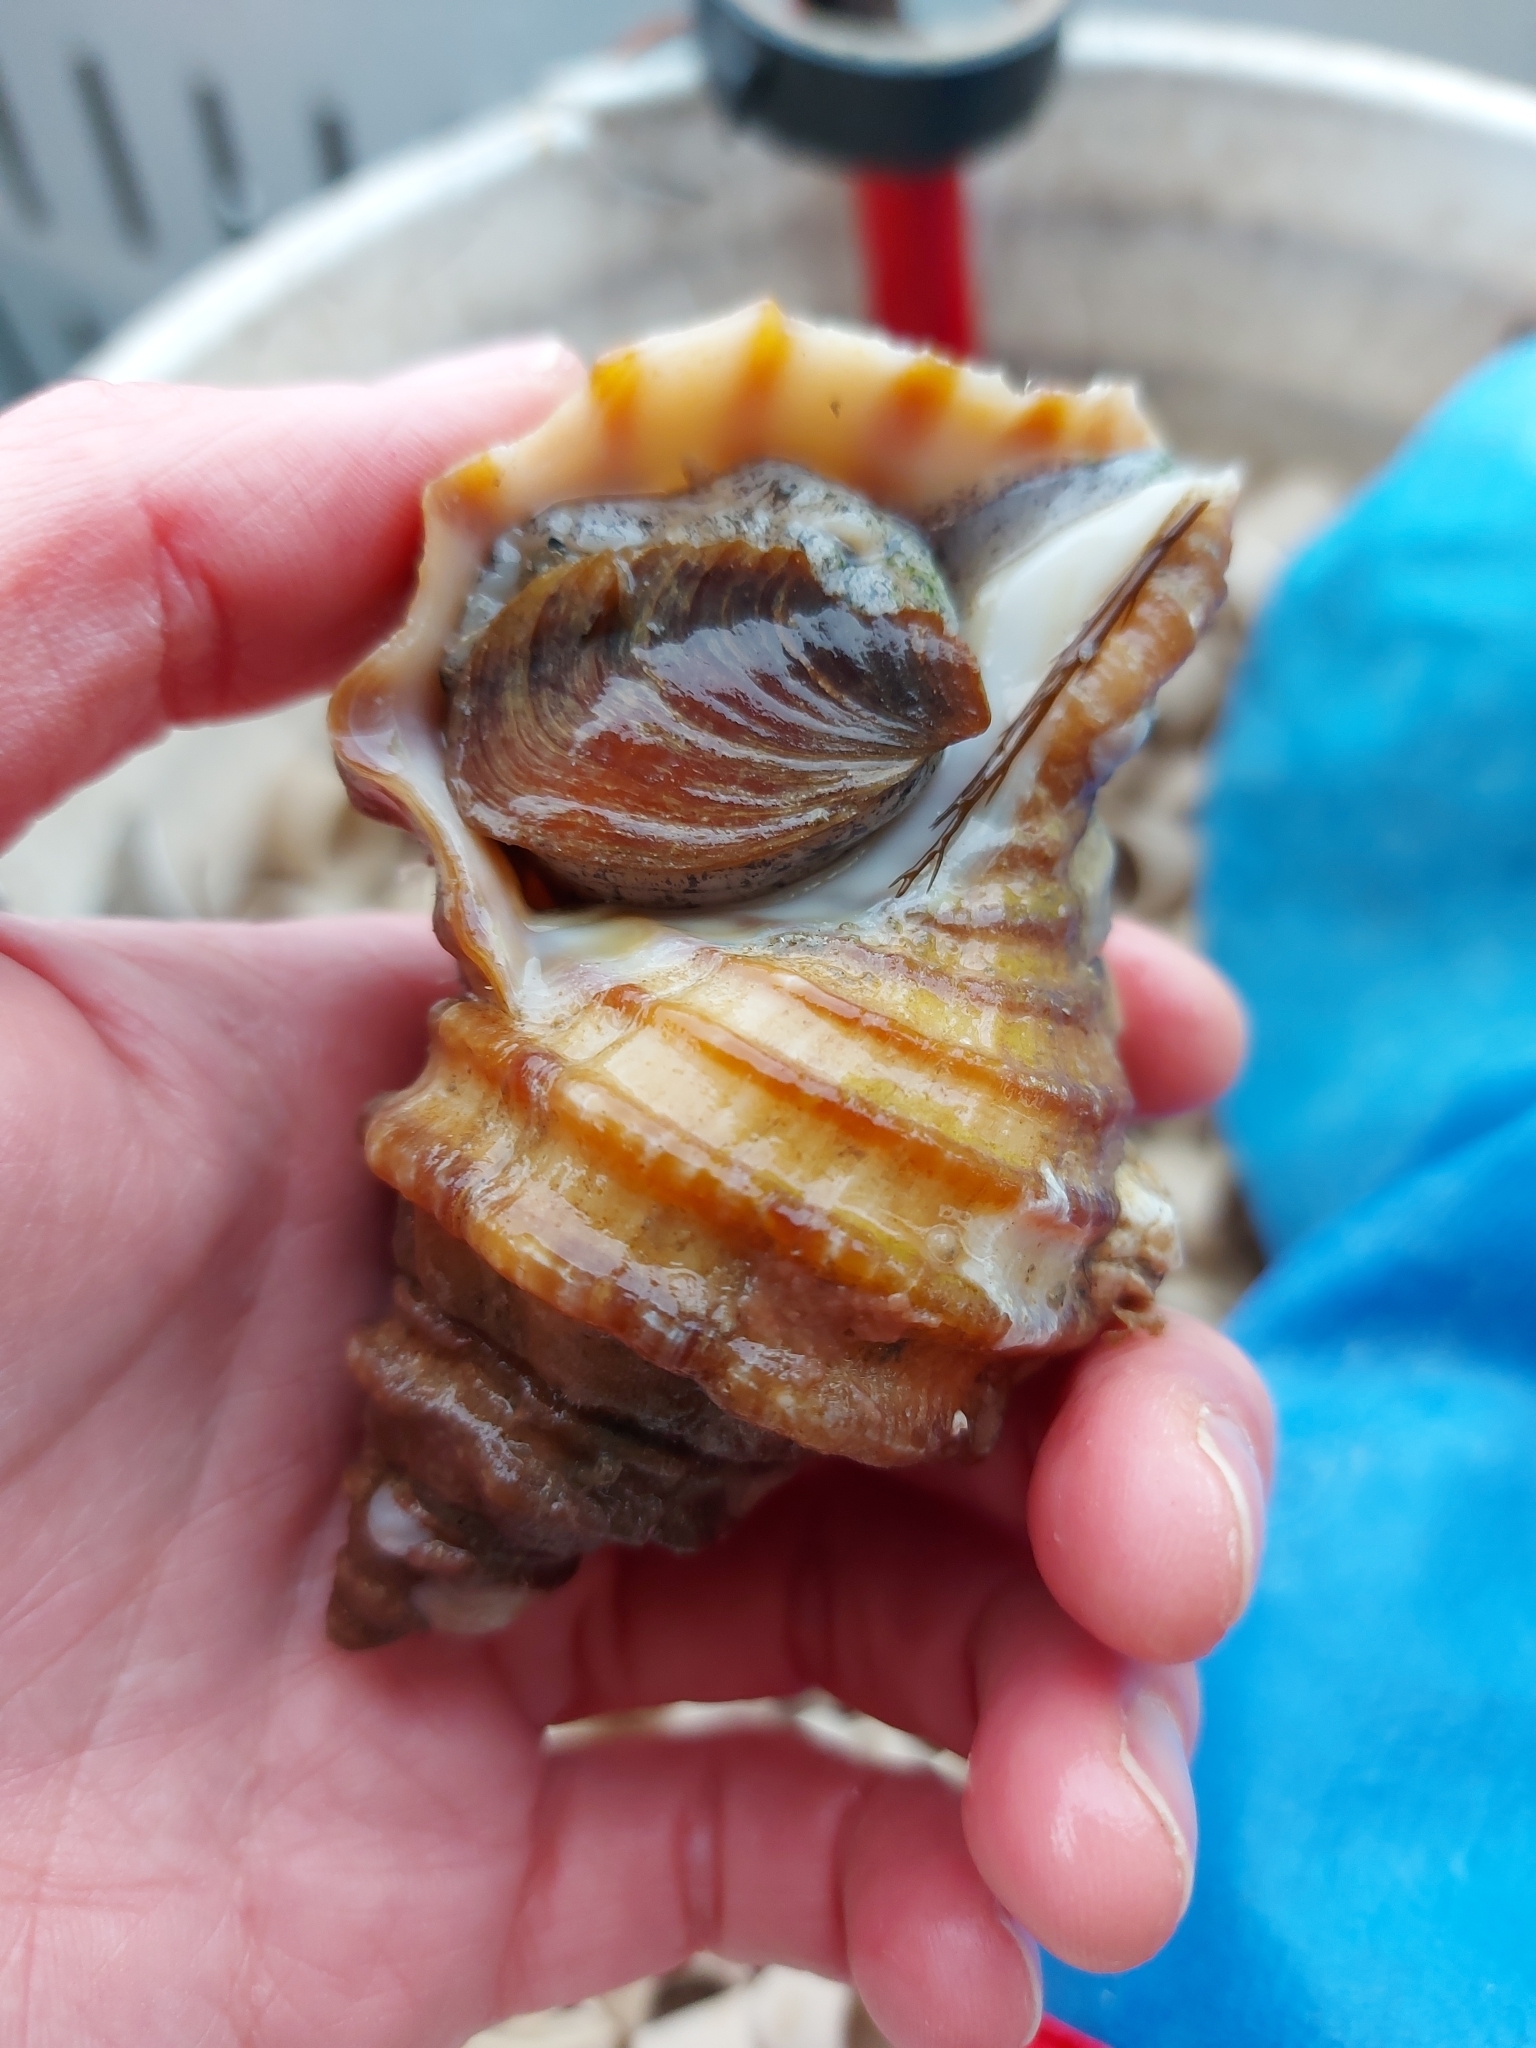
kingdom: Animalia
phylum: Mollusca
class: Gastropoda
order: Neogastropoda
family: Buccinidae
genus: Neptunea
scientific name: Neptunea decemcostata
